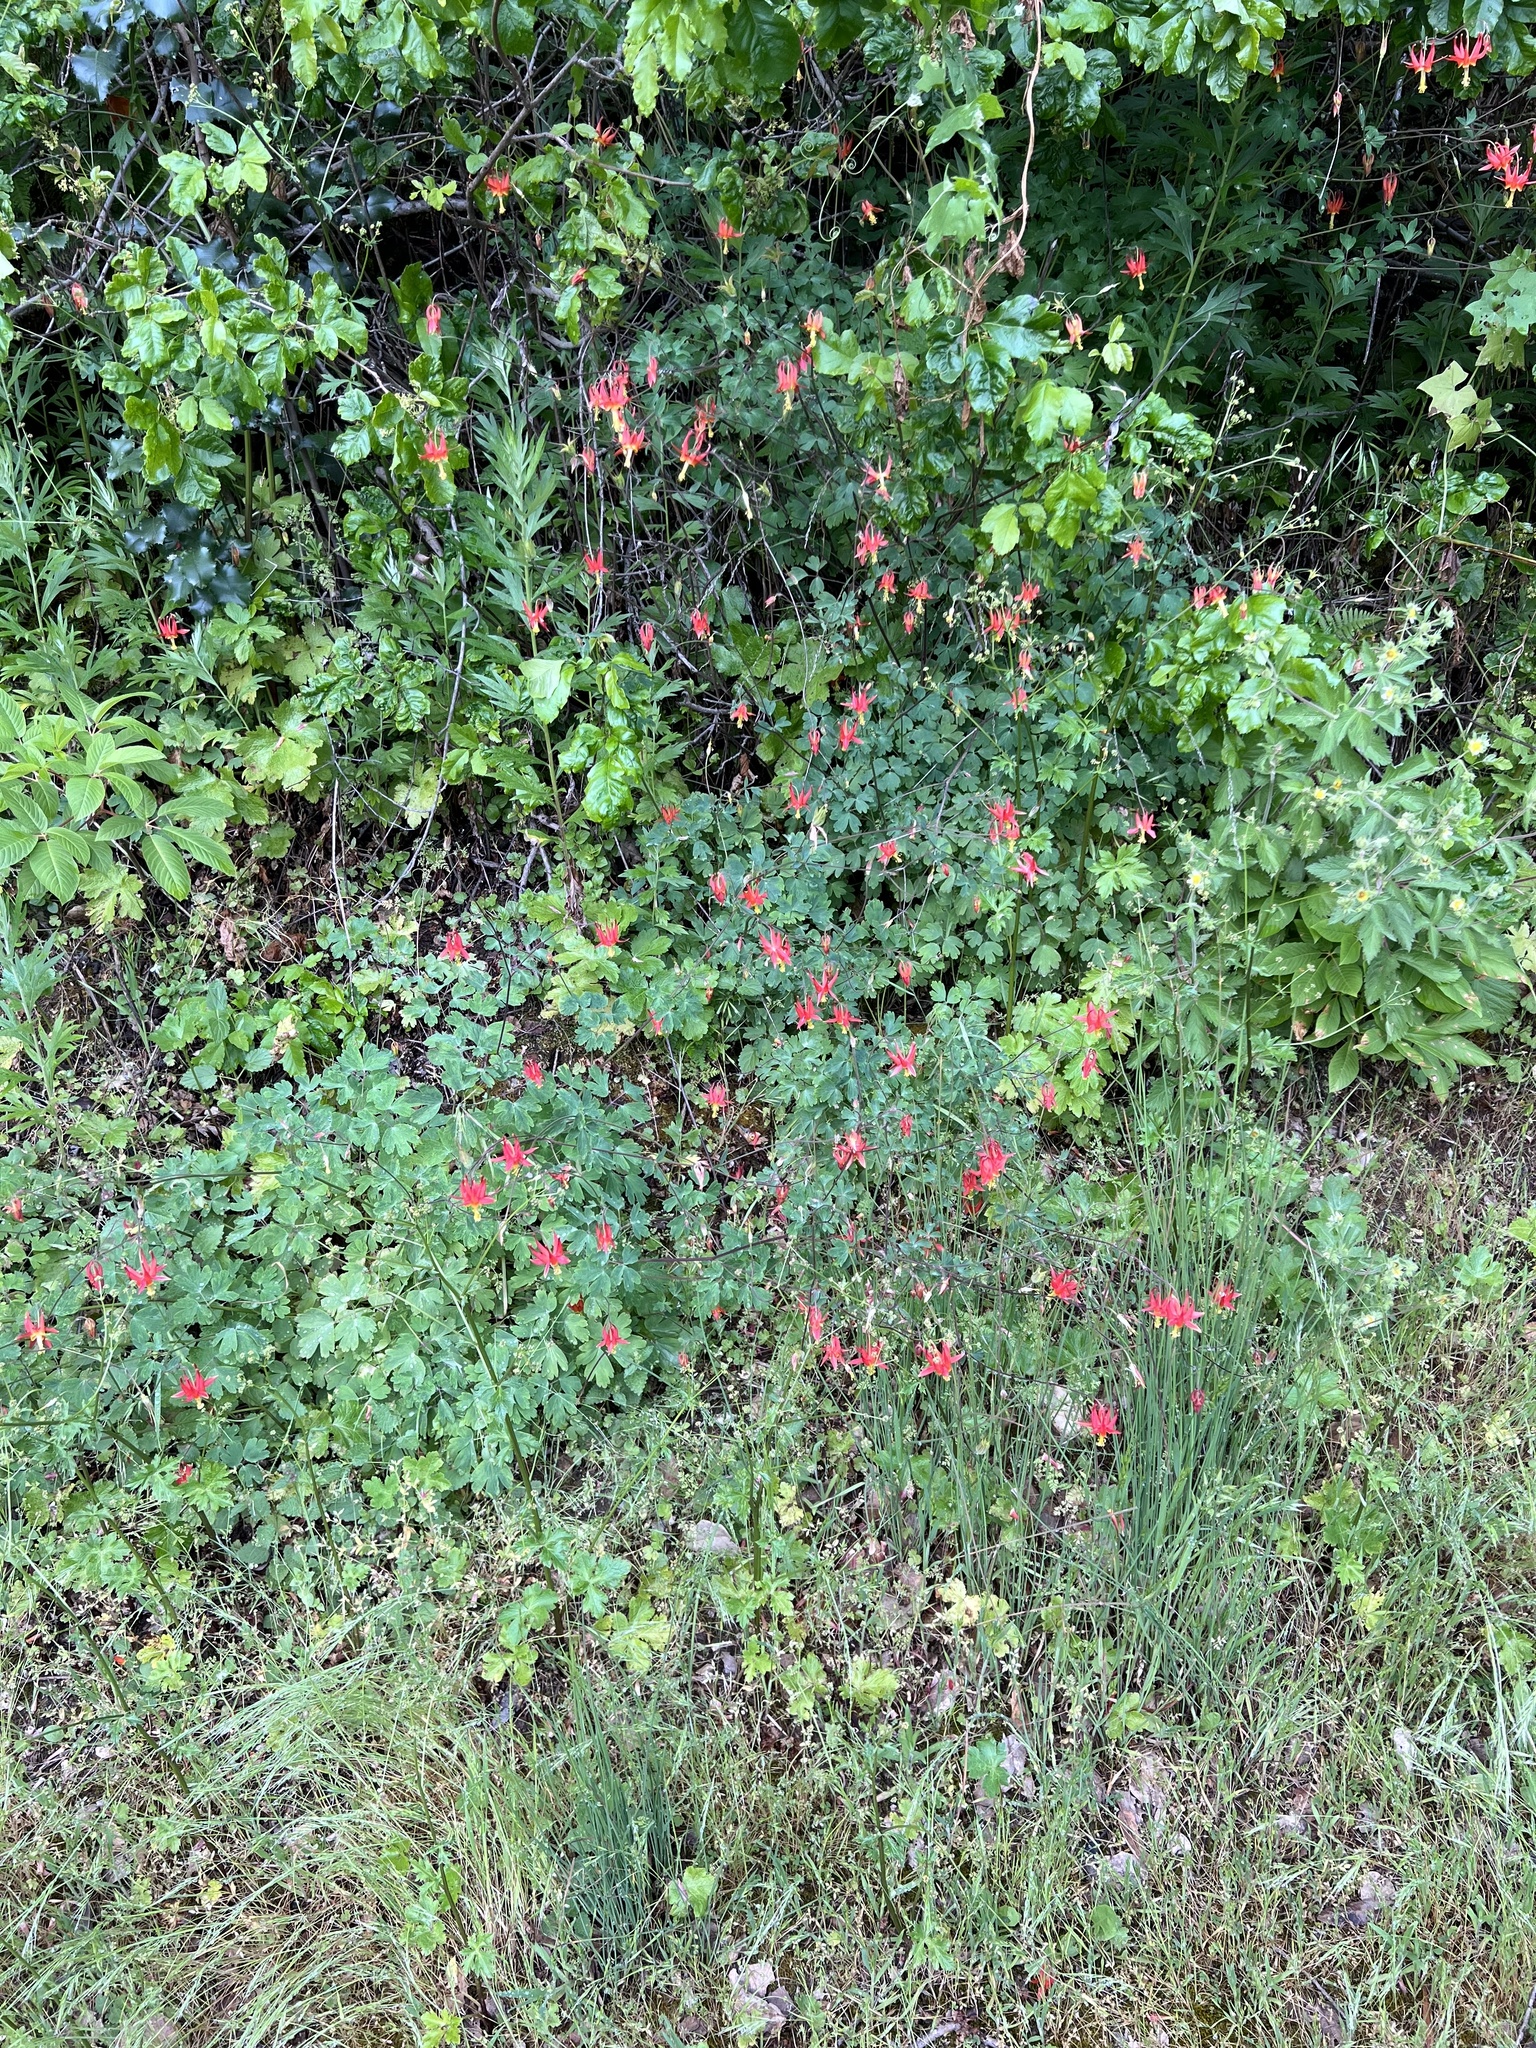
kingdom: Plantae
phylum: Tracheophyta
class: Magnoliopsida
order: Ranunculales
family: Ranunculaceae
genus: Aquilegia
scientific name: Aquilegia formosa
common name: Sitka columbine
